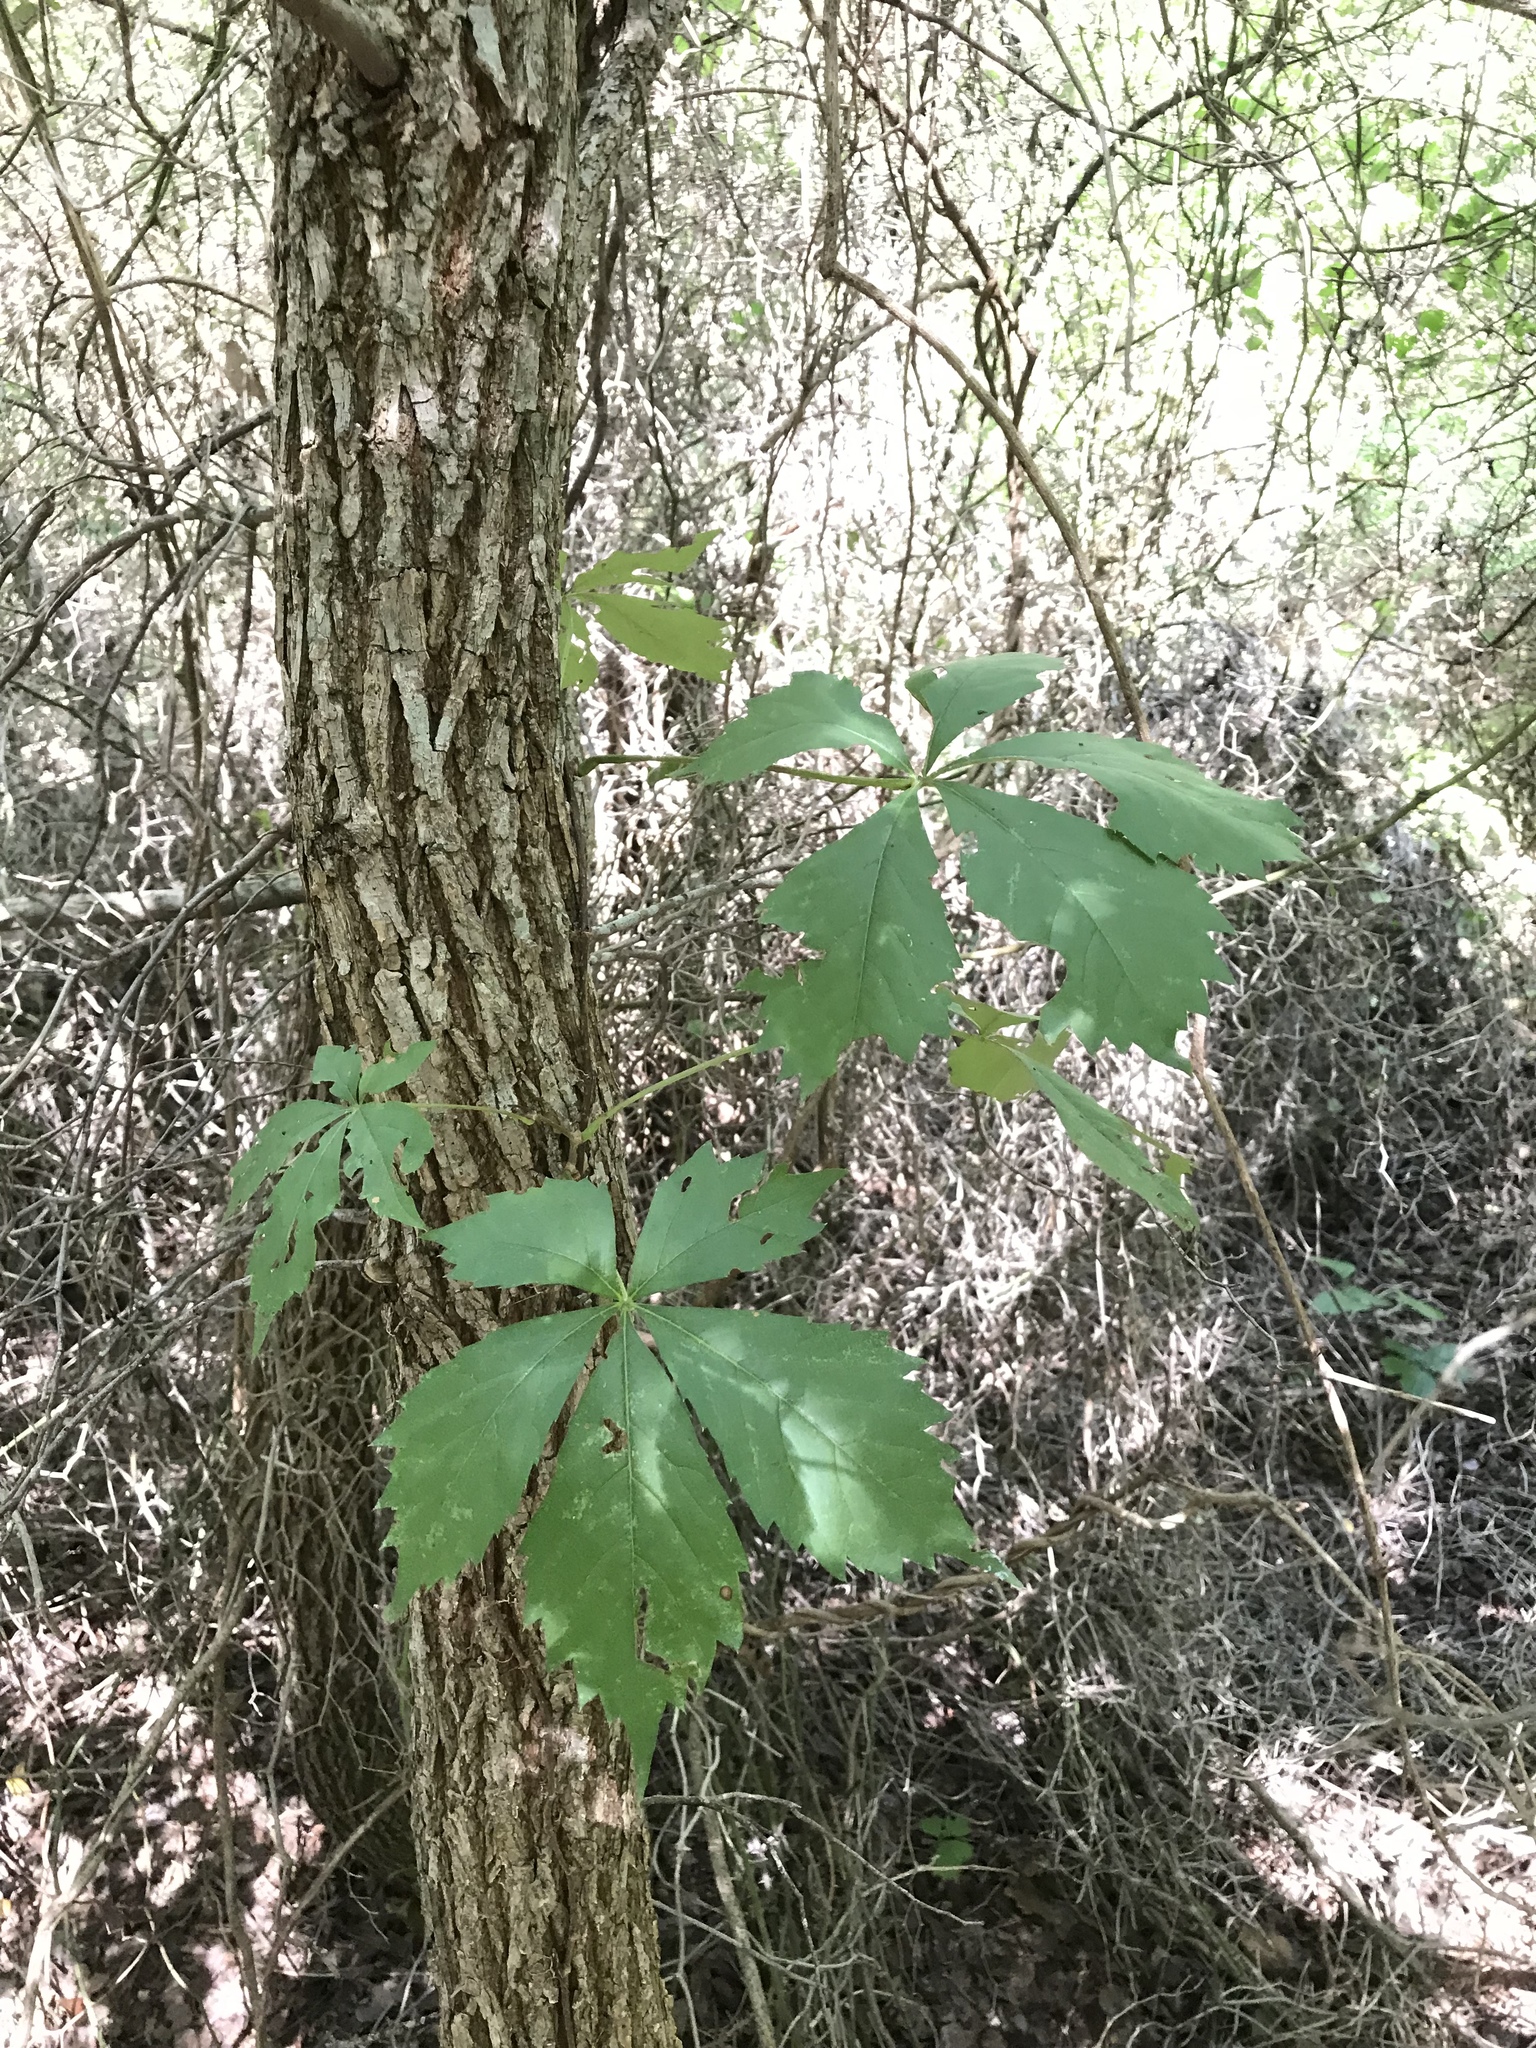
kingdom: Plantae
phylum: Tracheophyta
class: Magnoliopsida
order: Vitales
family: Vitaceae
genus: Parthenocissus
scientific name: Parthenocissus quinquefolia
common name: Virginia-creeper
